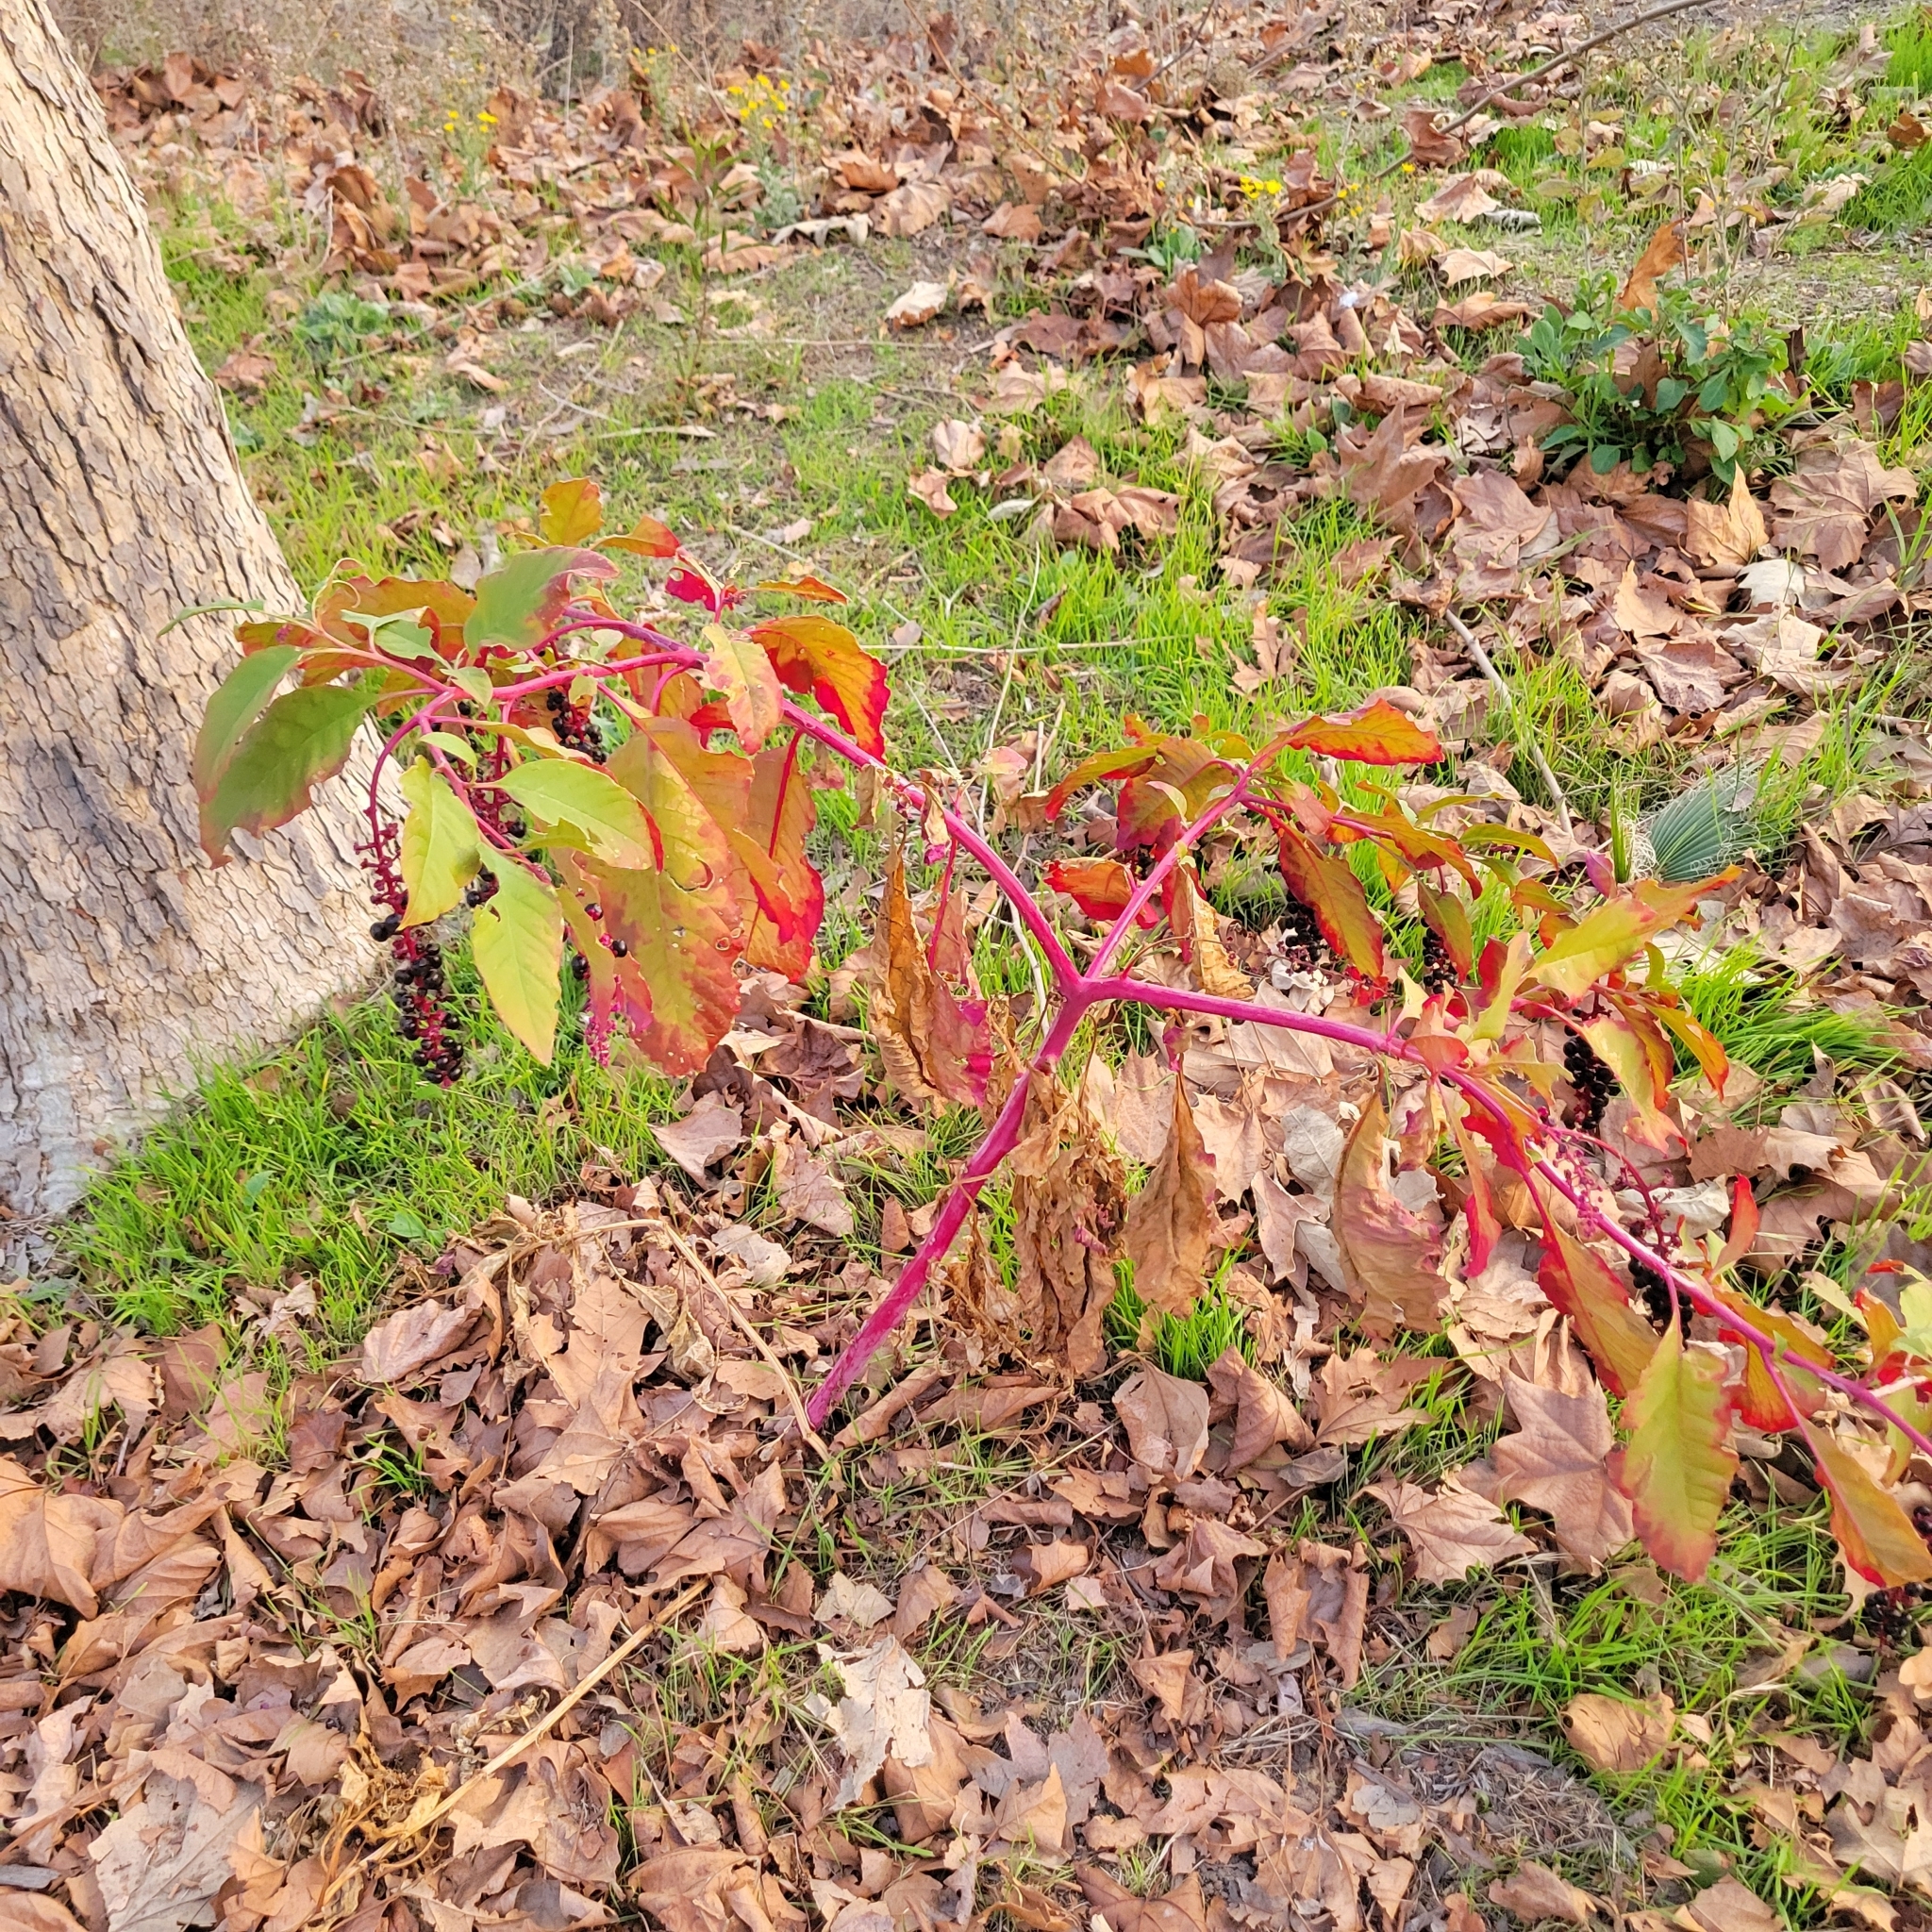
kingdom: Plantae
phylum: Tracheophyta
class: Magnoliopsida
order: Caryophyllales
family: Phytolaccaceae
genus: Phytolacca
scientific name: Phytolacca americana
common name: American pokeweed
